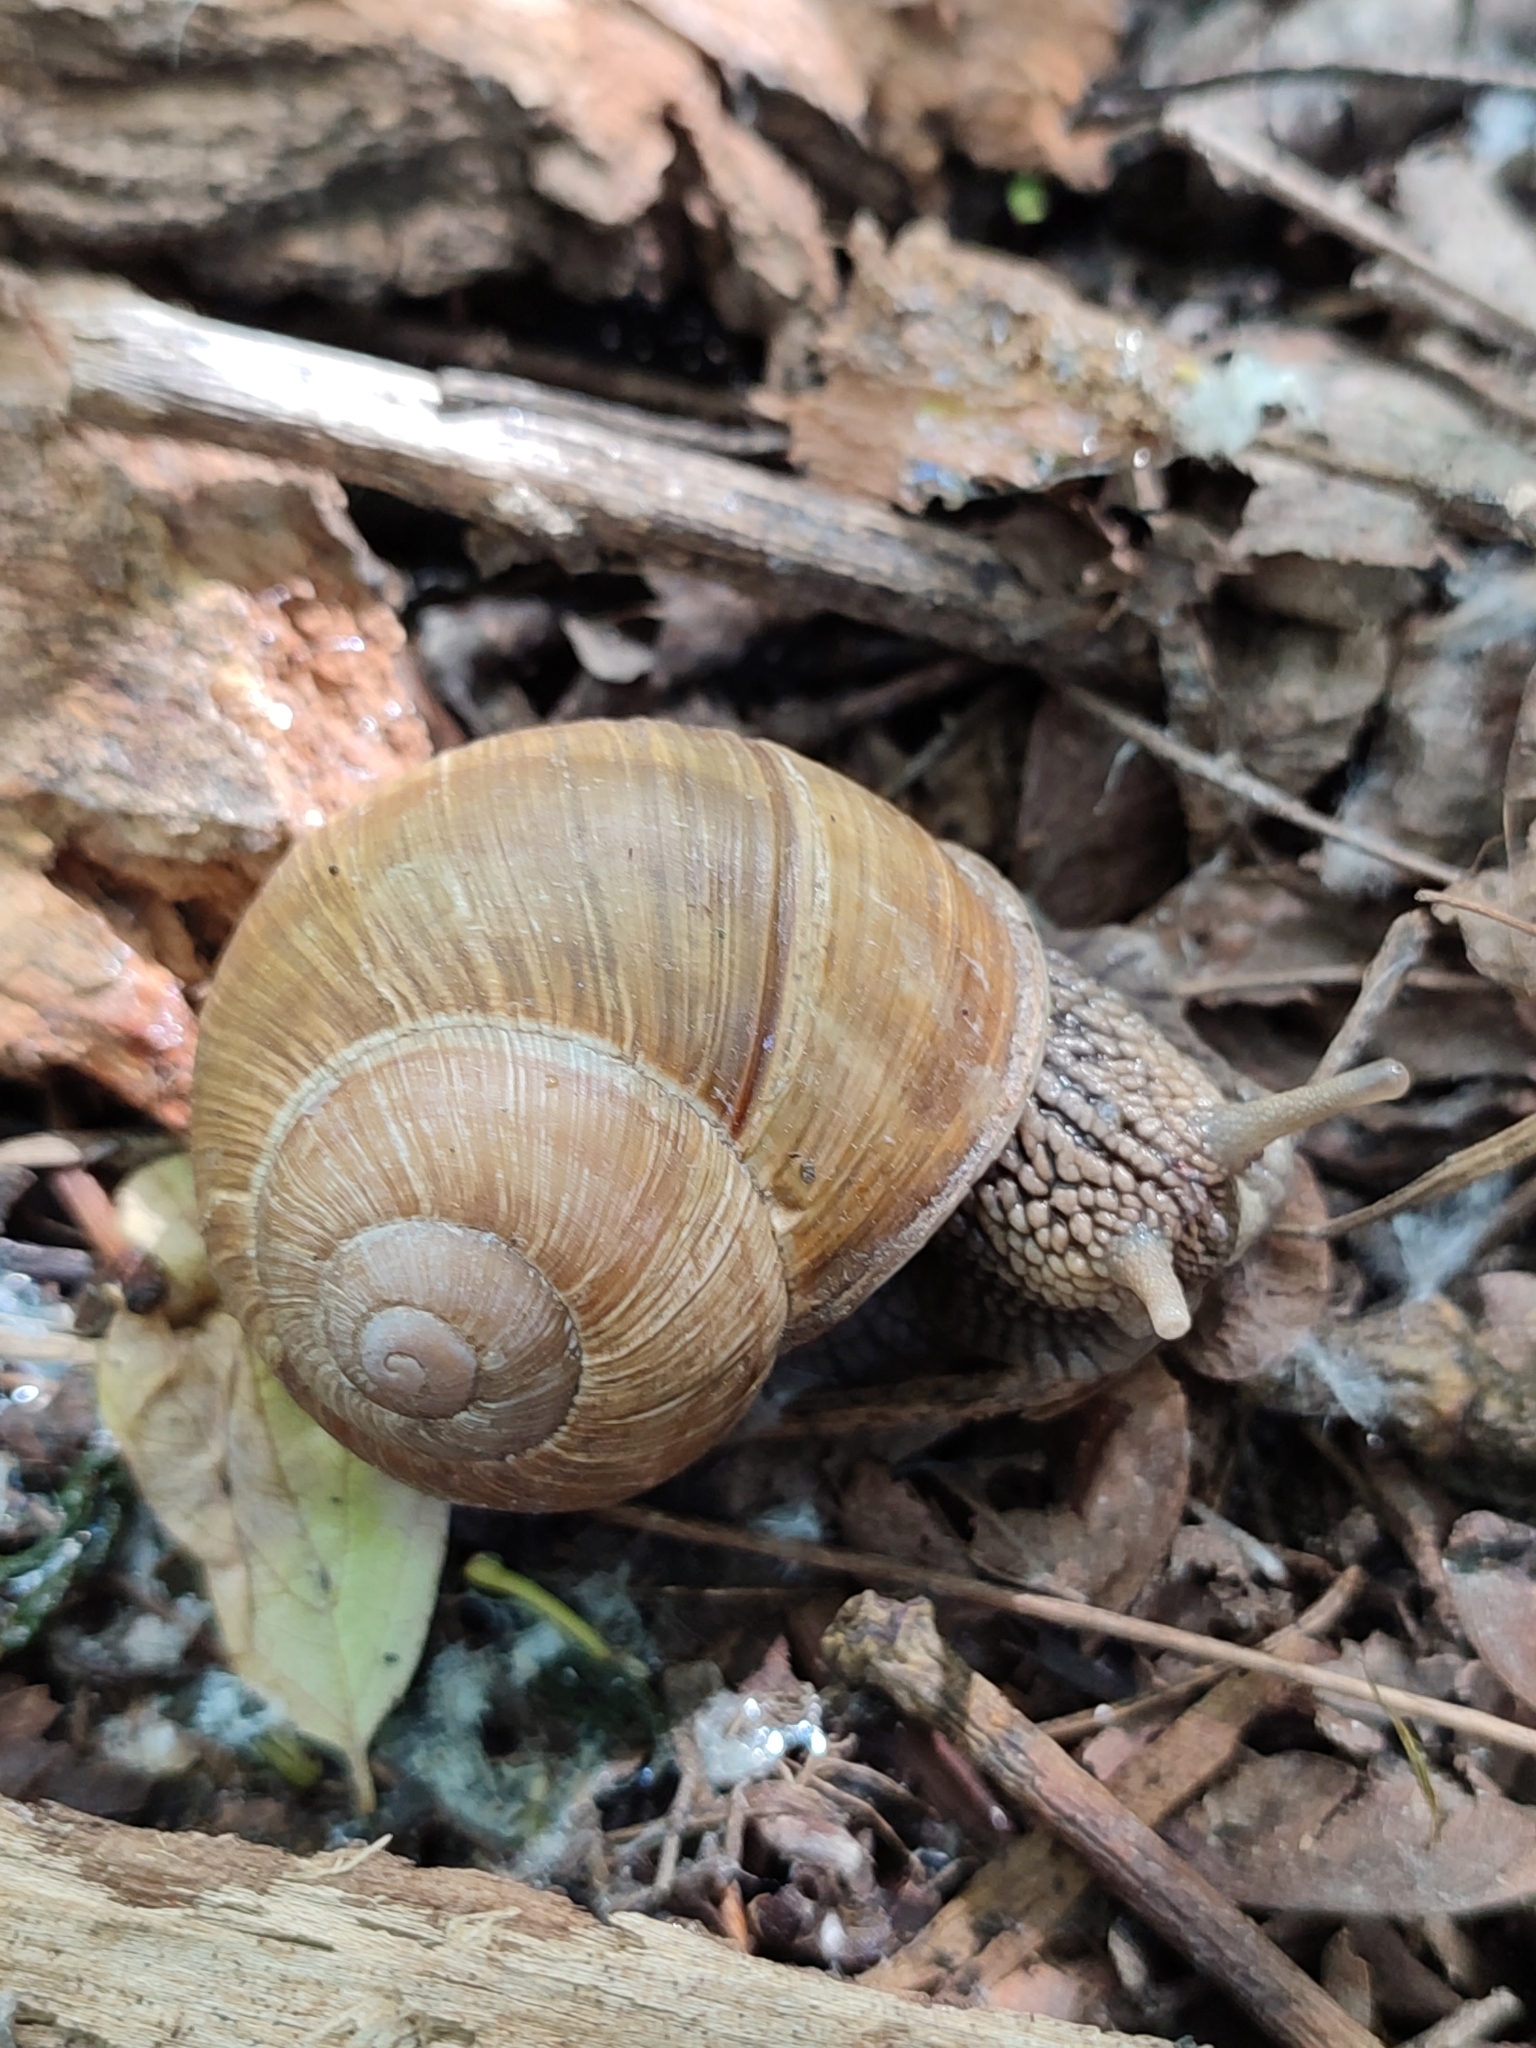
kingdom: Animalia
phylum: Mollusca
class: Gastropoda
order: Stylommatophora
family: Helicidae
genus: Helix
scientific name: Helix pomatia
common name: Roman snail
